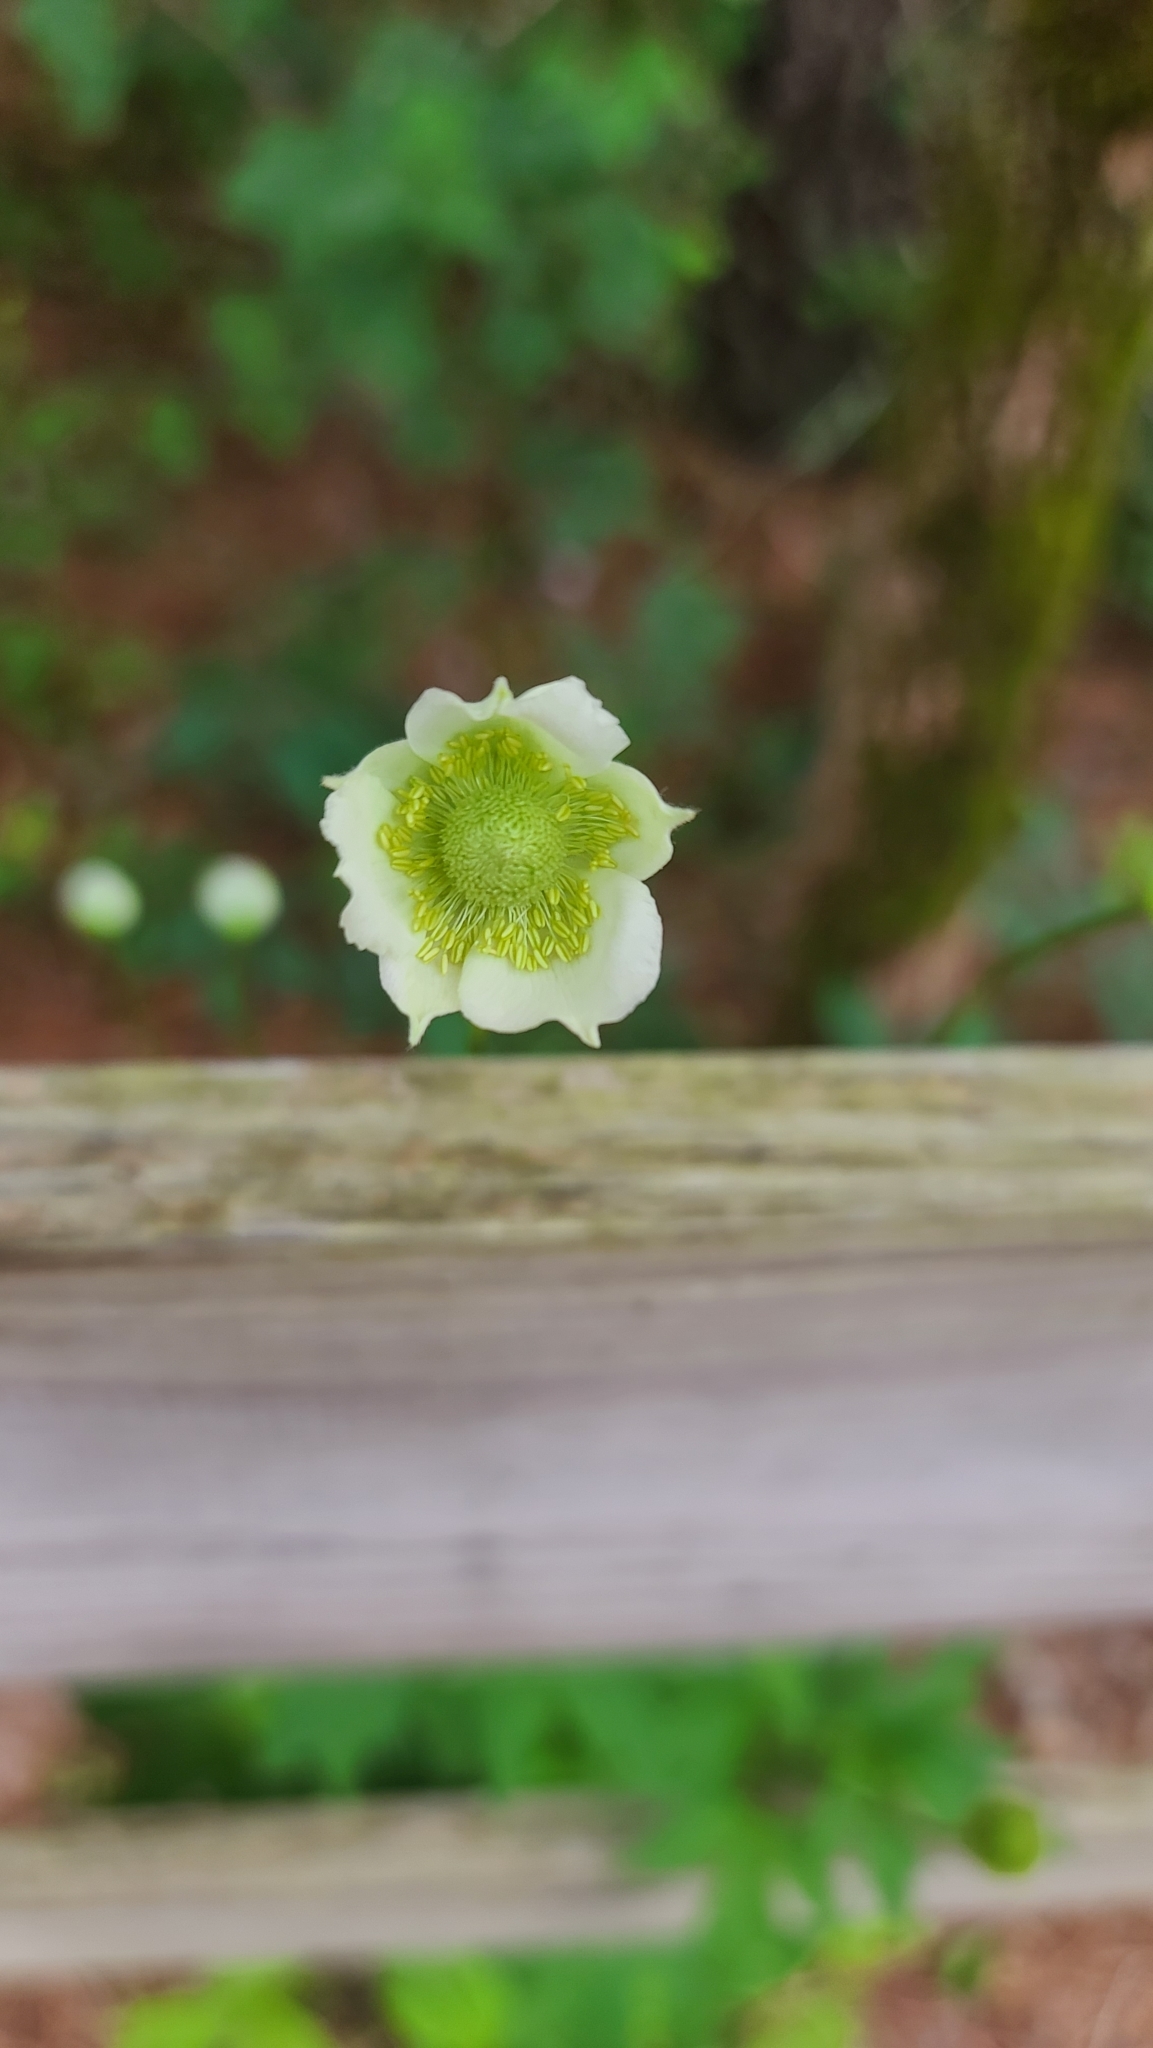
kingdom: Plantae
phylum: Tracheophyta
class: Magnoliopsida
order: Ranunculales
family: Ranunculaceae
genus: Anemone
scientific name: Anemone virginiana
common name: Tall anemone
